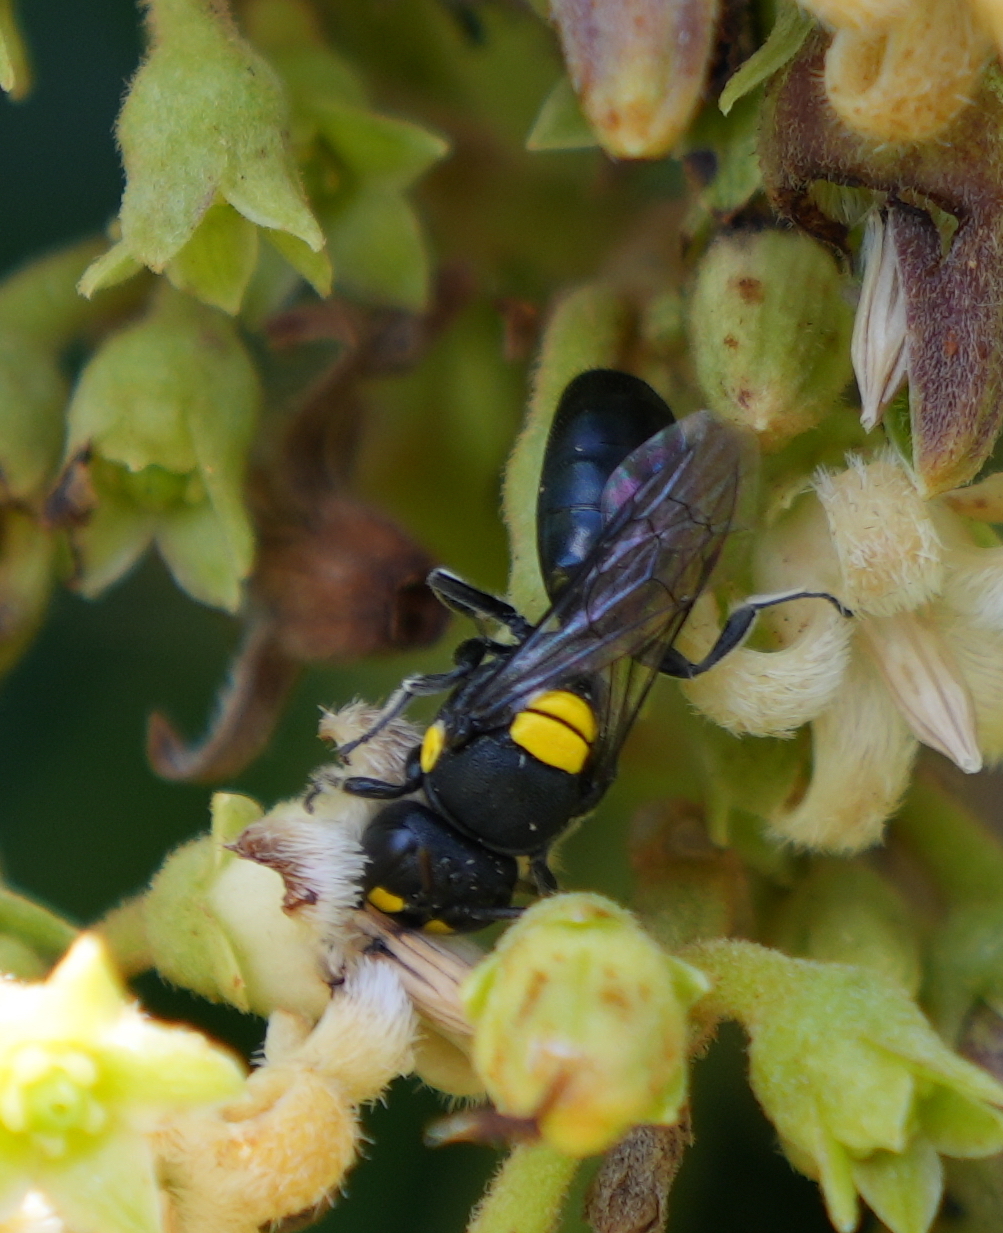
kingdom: Animalia
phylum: Arthropoda
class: Insecta
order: Hymenoptera
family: Colletidae
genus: Hylaeus
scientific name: Hylaeus rotundiceps
